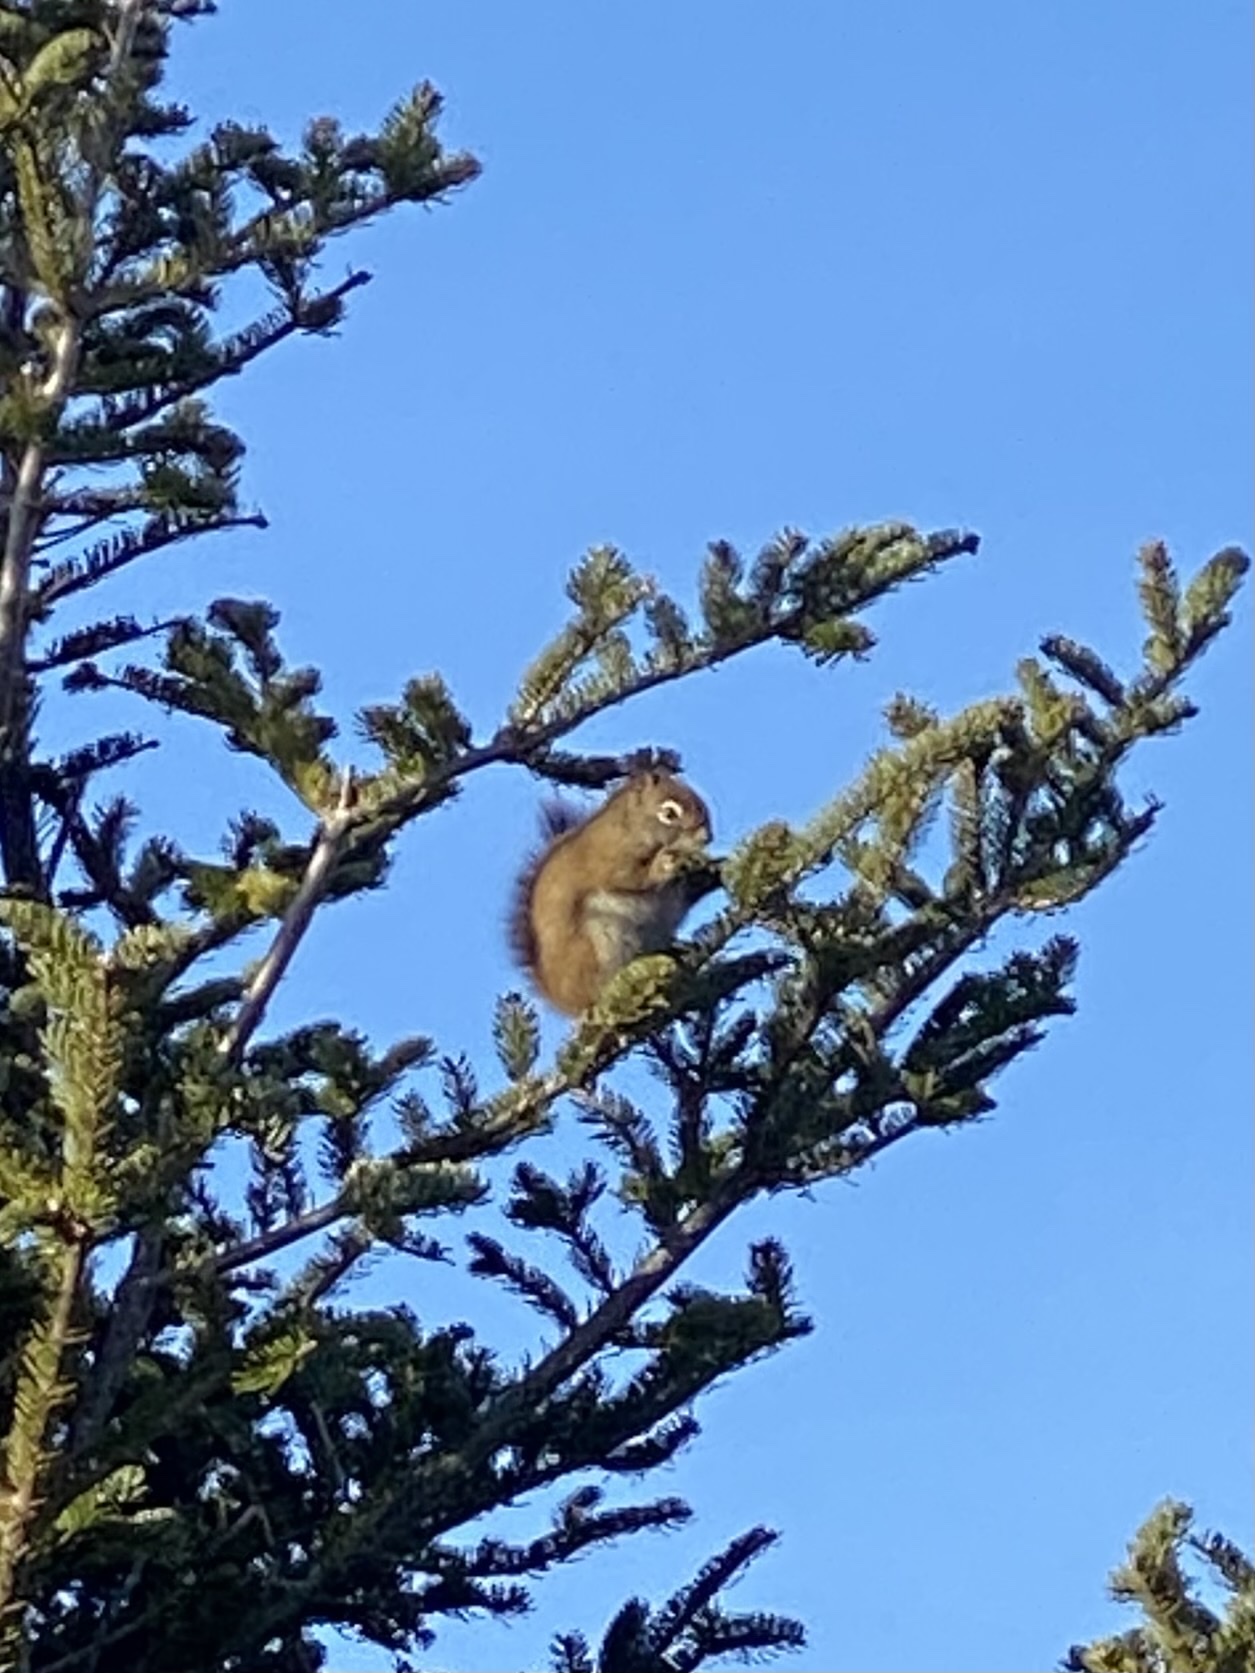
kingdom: Animalia
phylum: Chordata
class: Mammalia
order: Rodentia
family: Sciuridae
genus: Tamiasciurus
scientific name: Tamiasciurus hudsonicus
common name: Red squirrel
